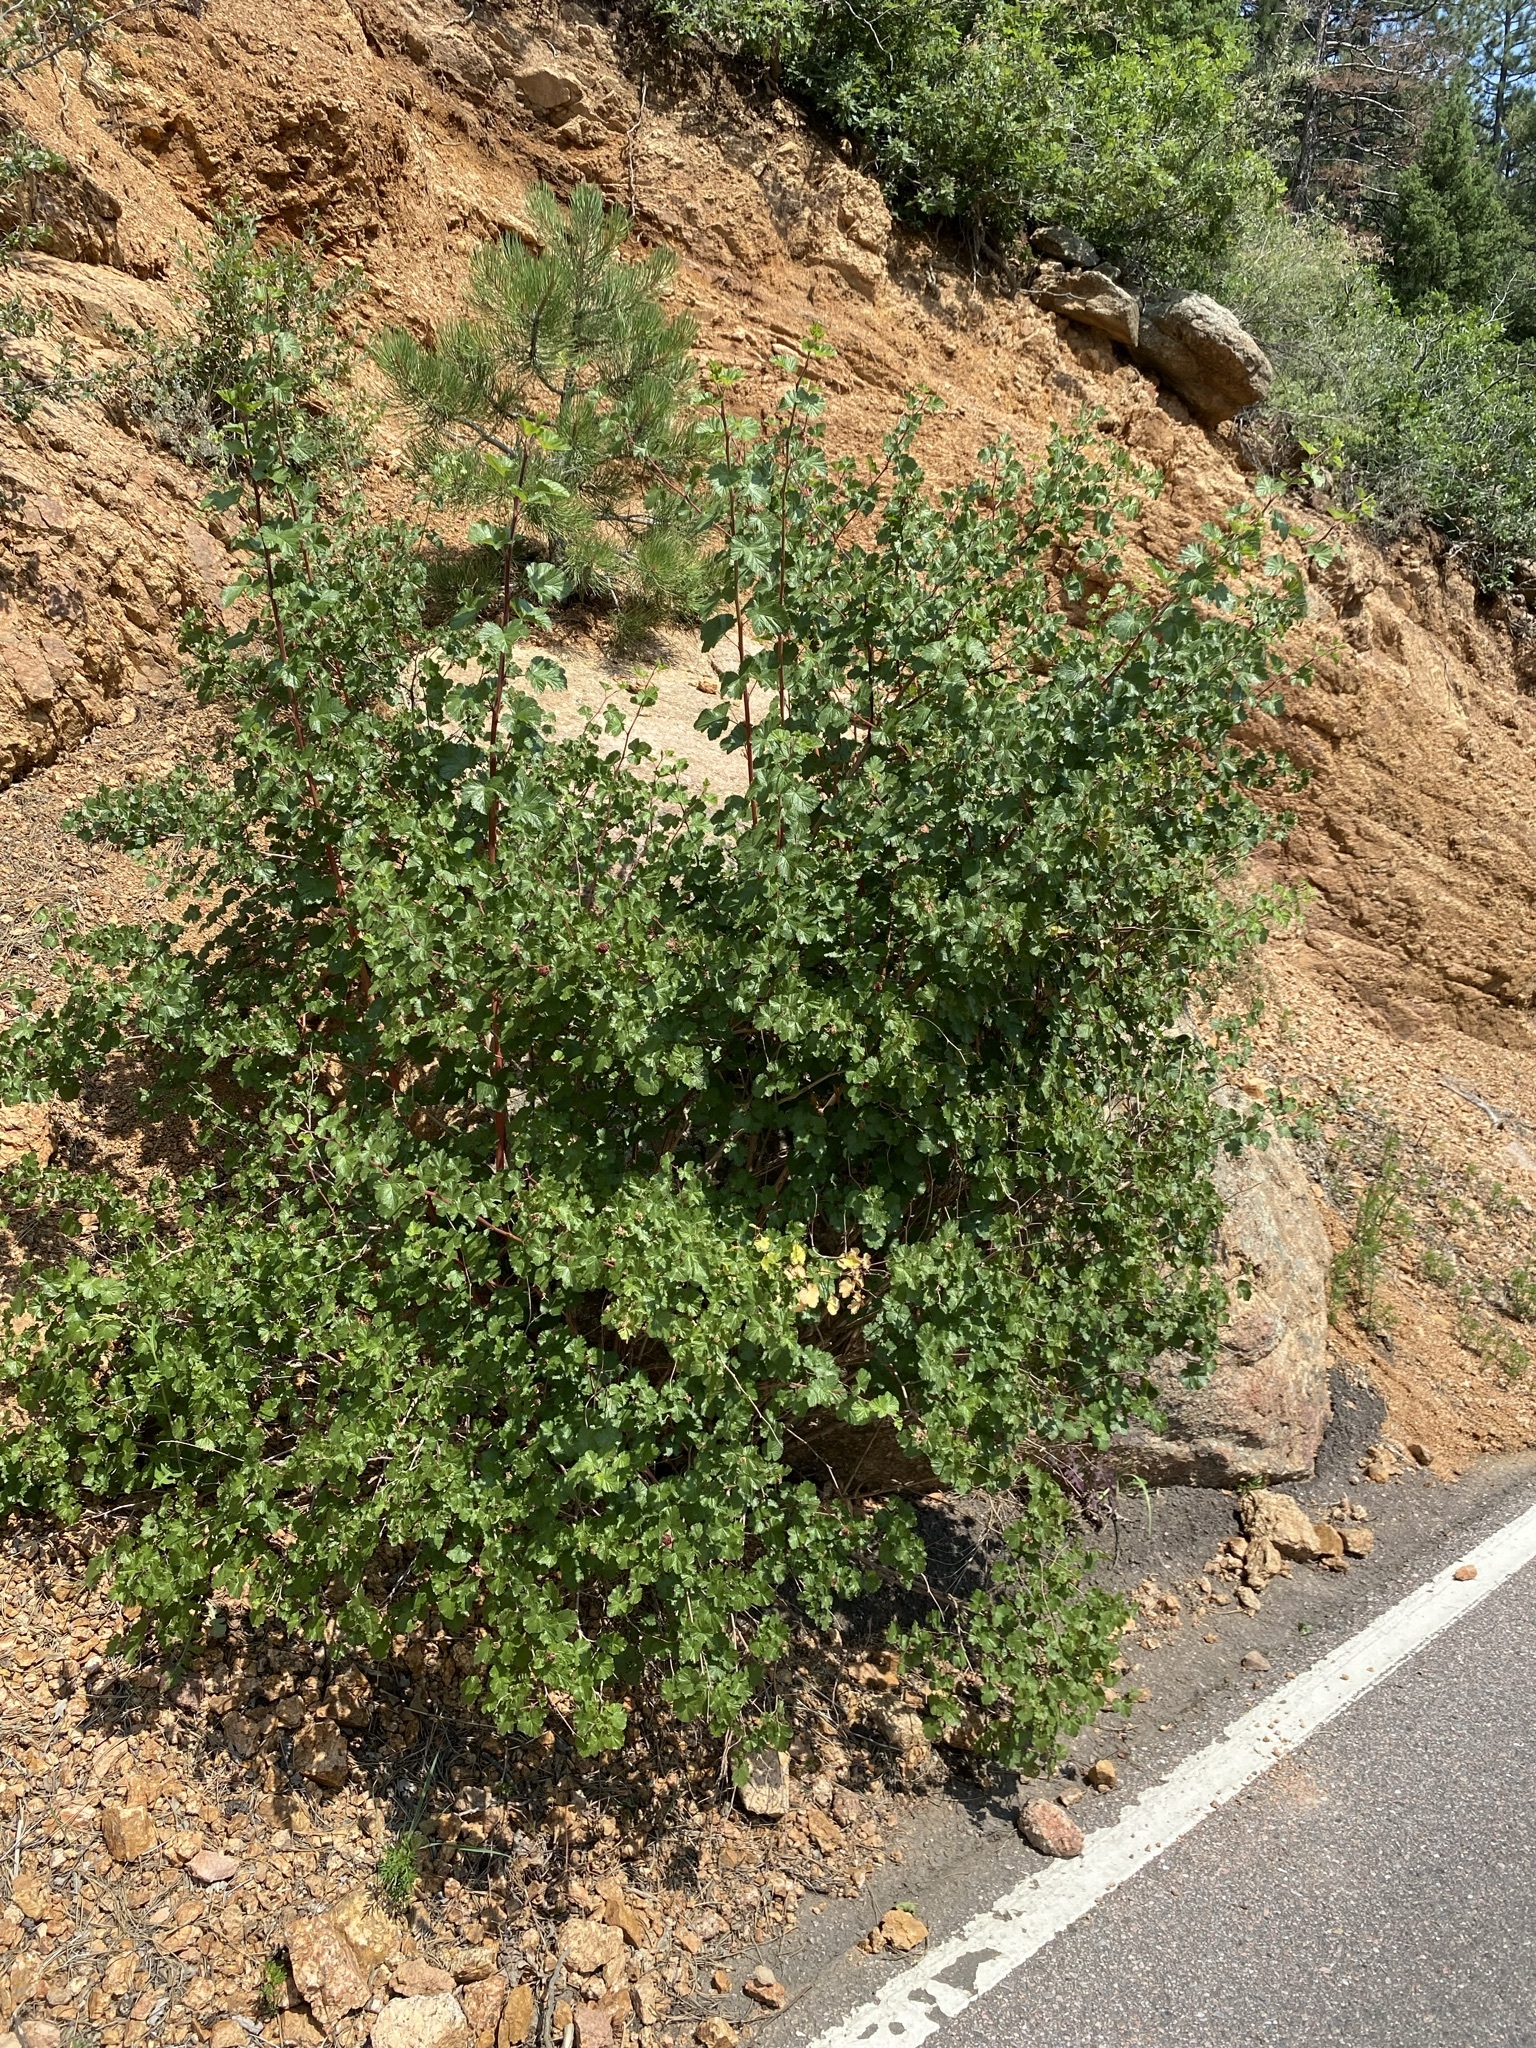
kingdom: Plantae
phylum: Tracheophyta
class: Magnoliopsida
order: Rosales
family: Rosaceae
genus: Rubus
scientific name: Rubus deliciosus
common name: Rocky mountain raspberry
